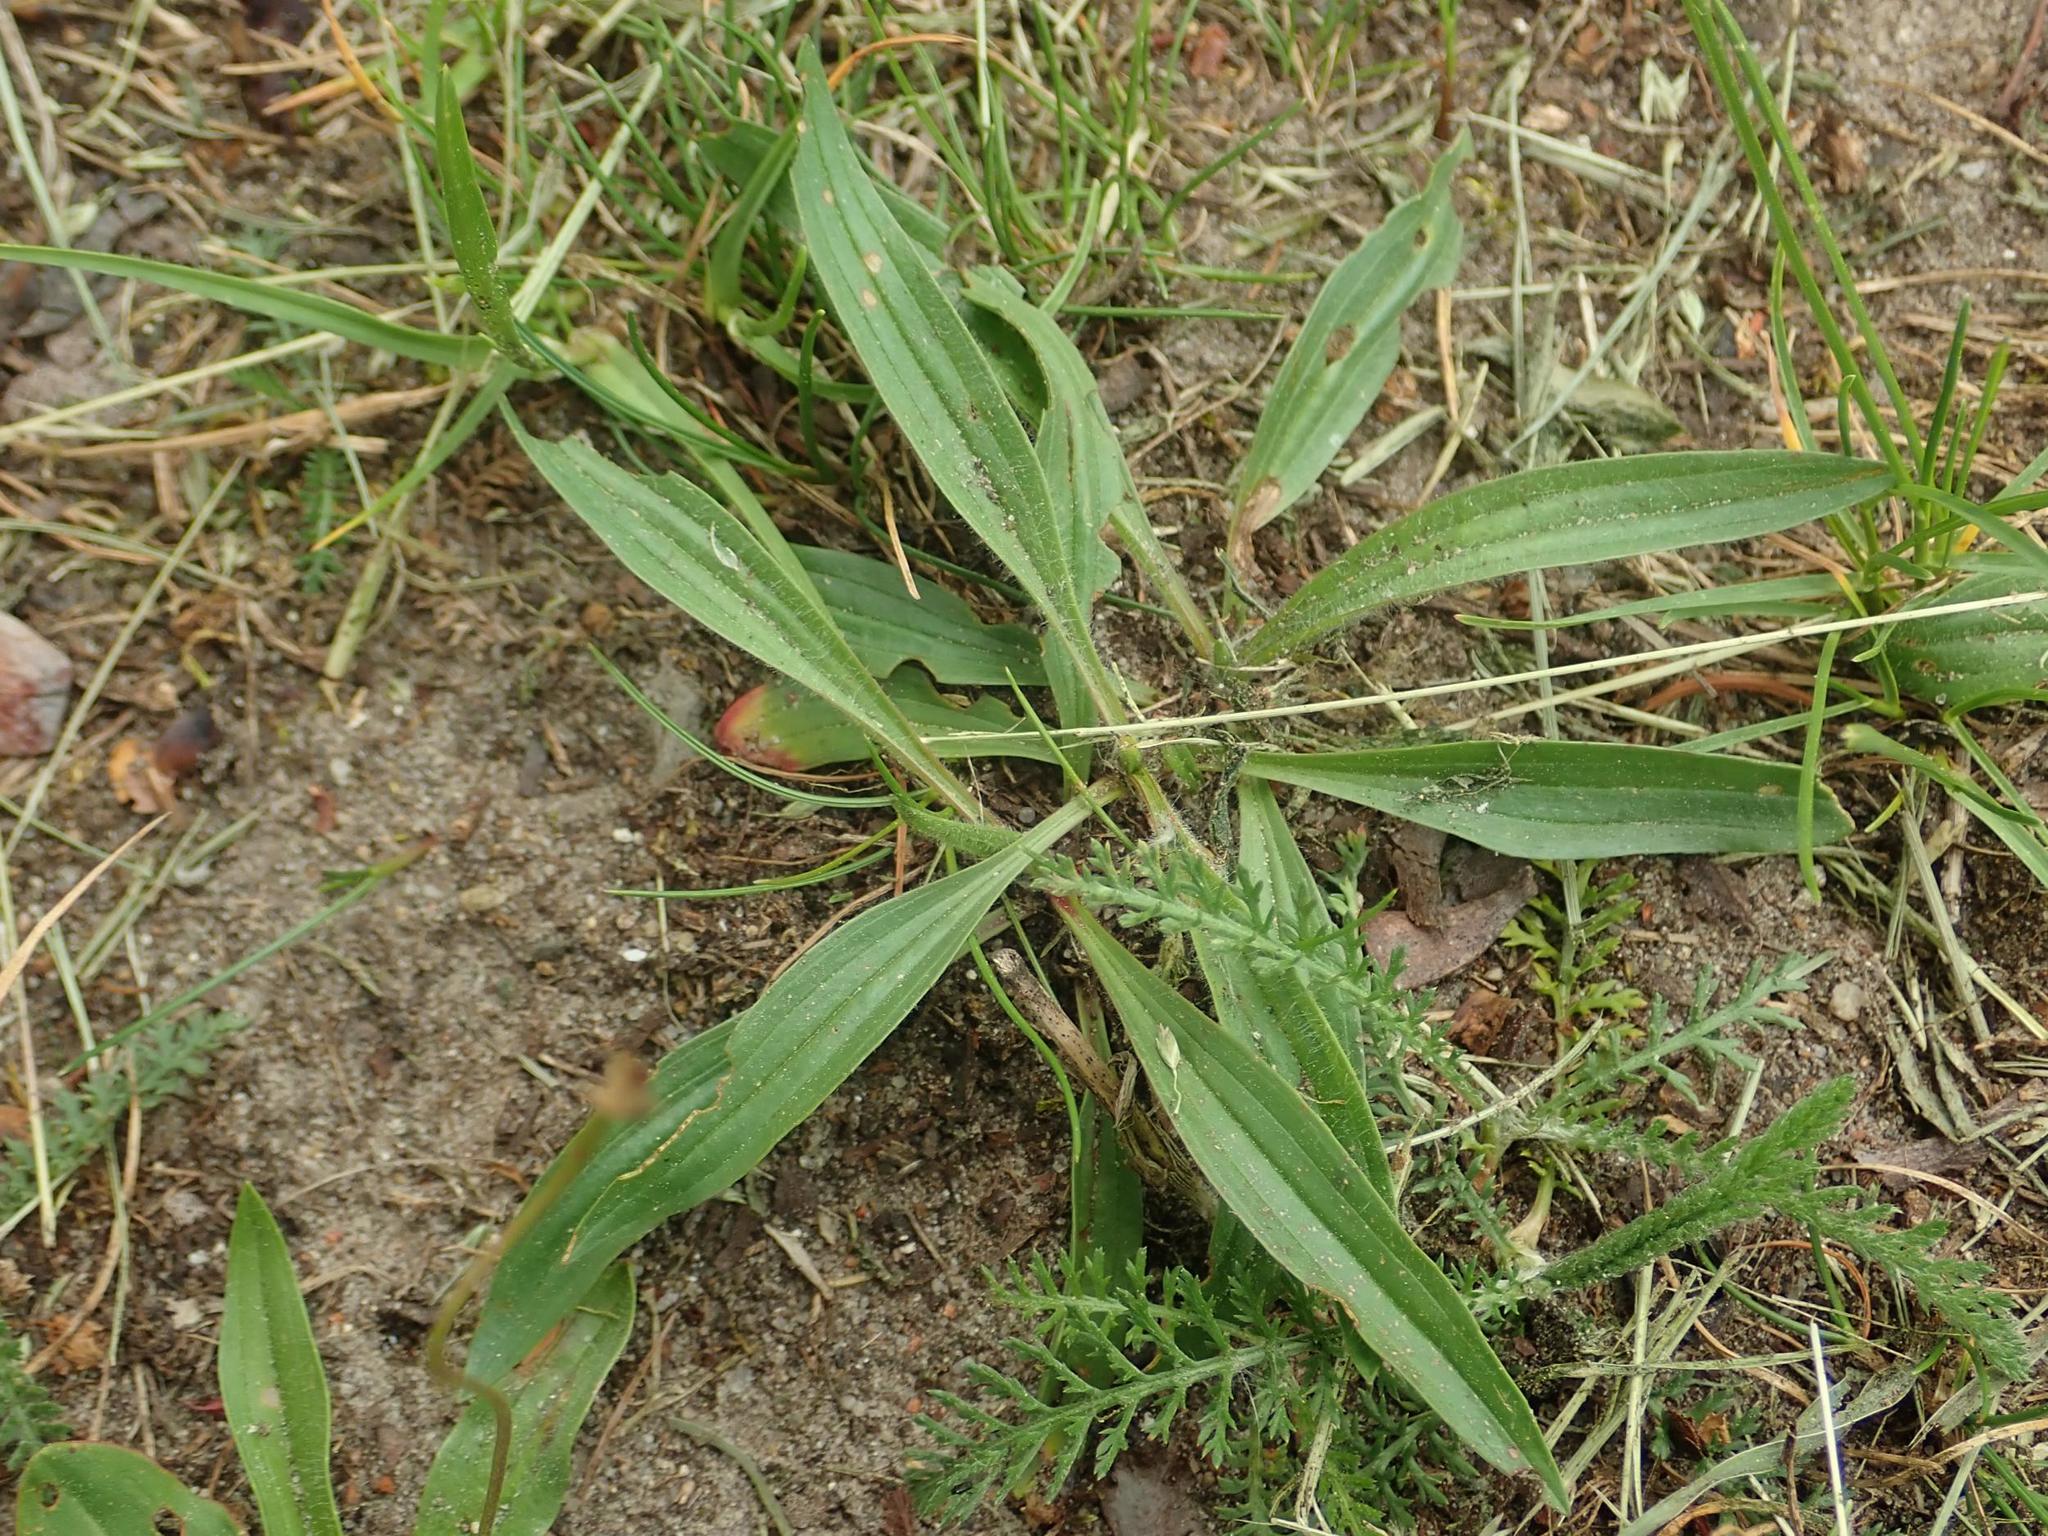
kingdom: Plantae
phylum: Tracheophyta
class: Magnoliopsida
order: Lamiales
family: Plantaginaceae
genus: Plantago
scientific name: Plantago lanceolata
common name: Ribwort plantain
